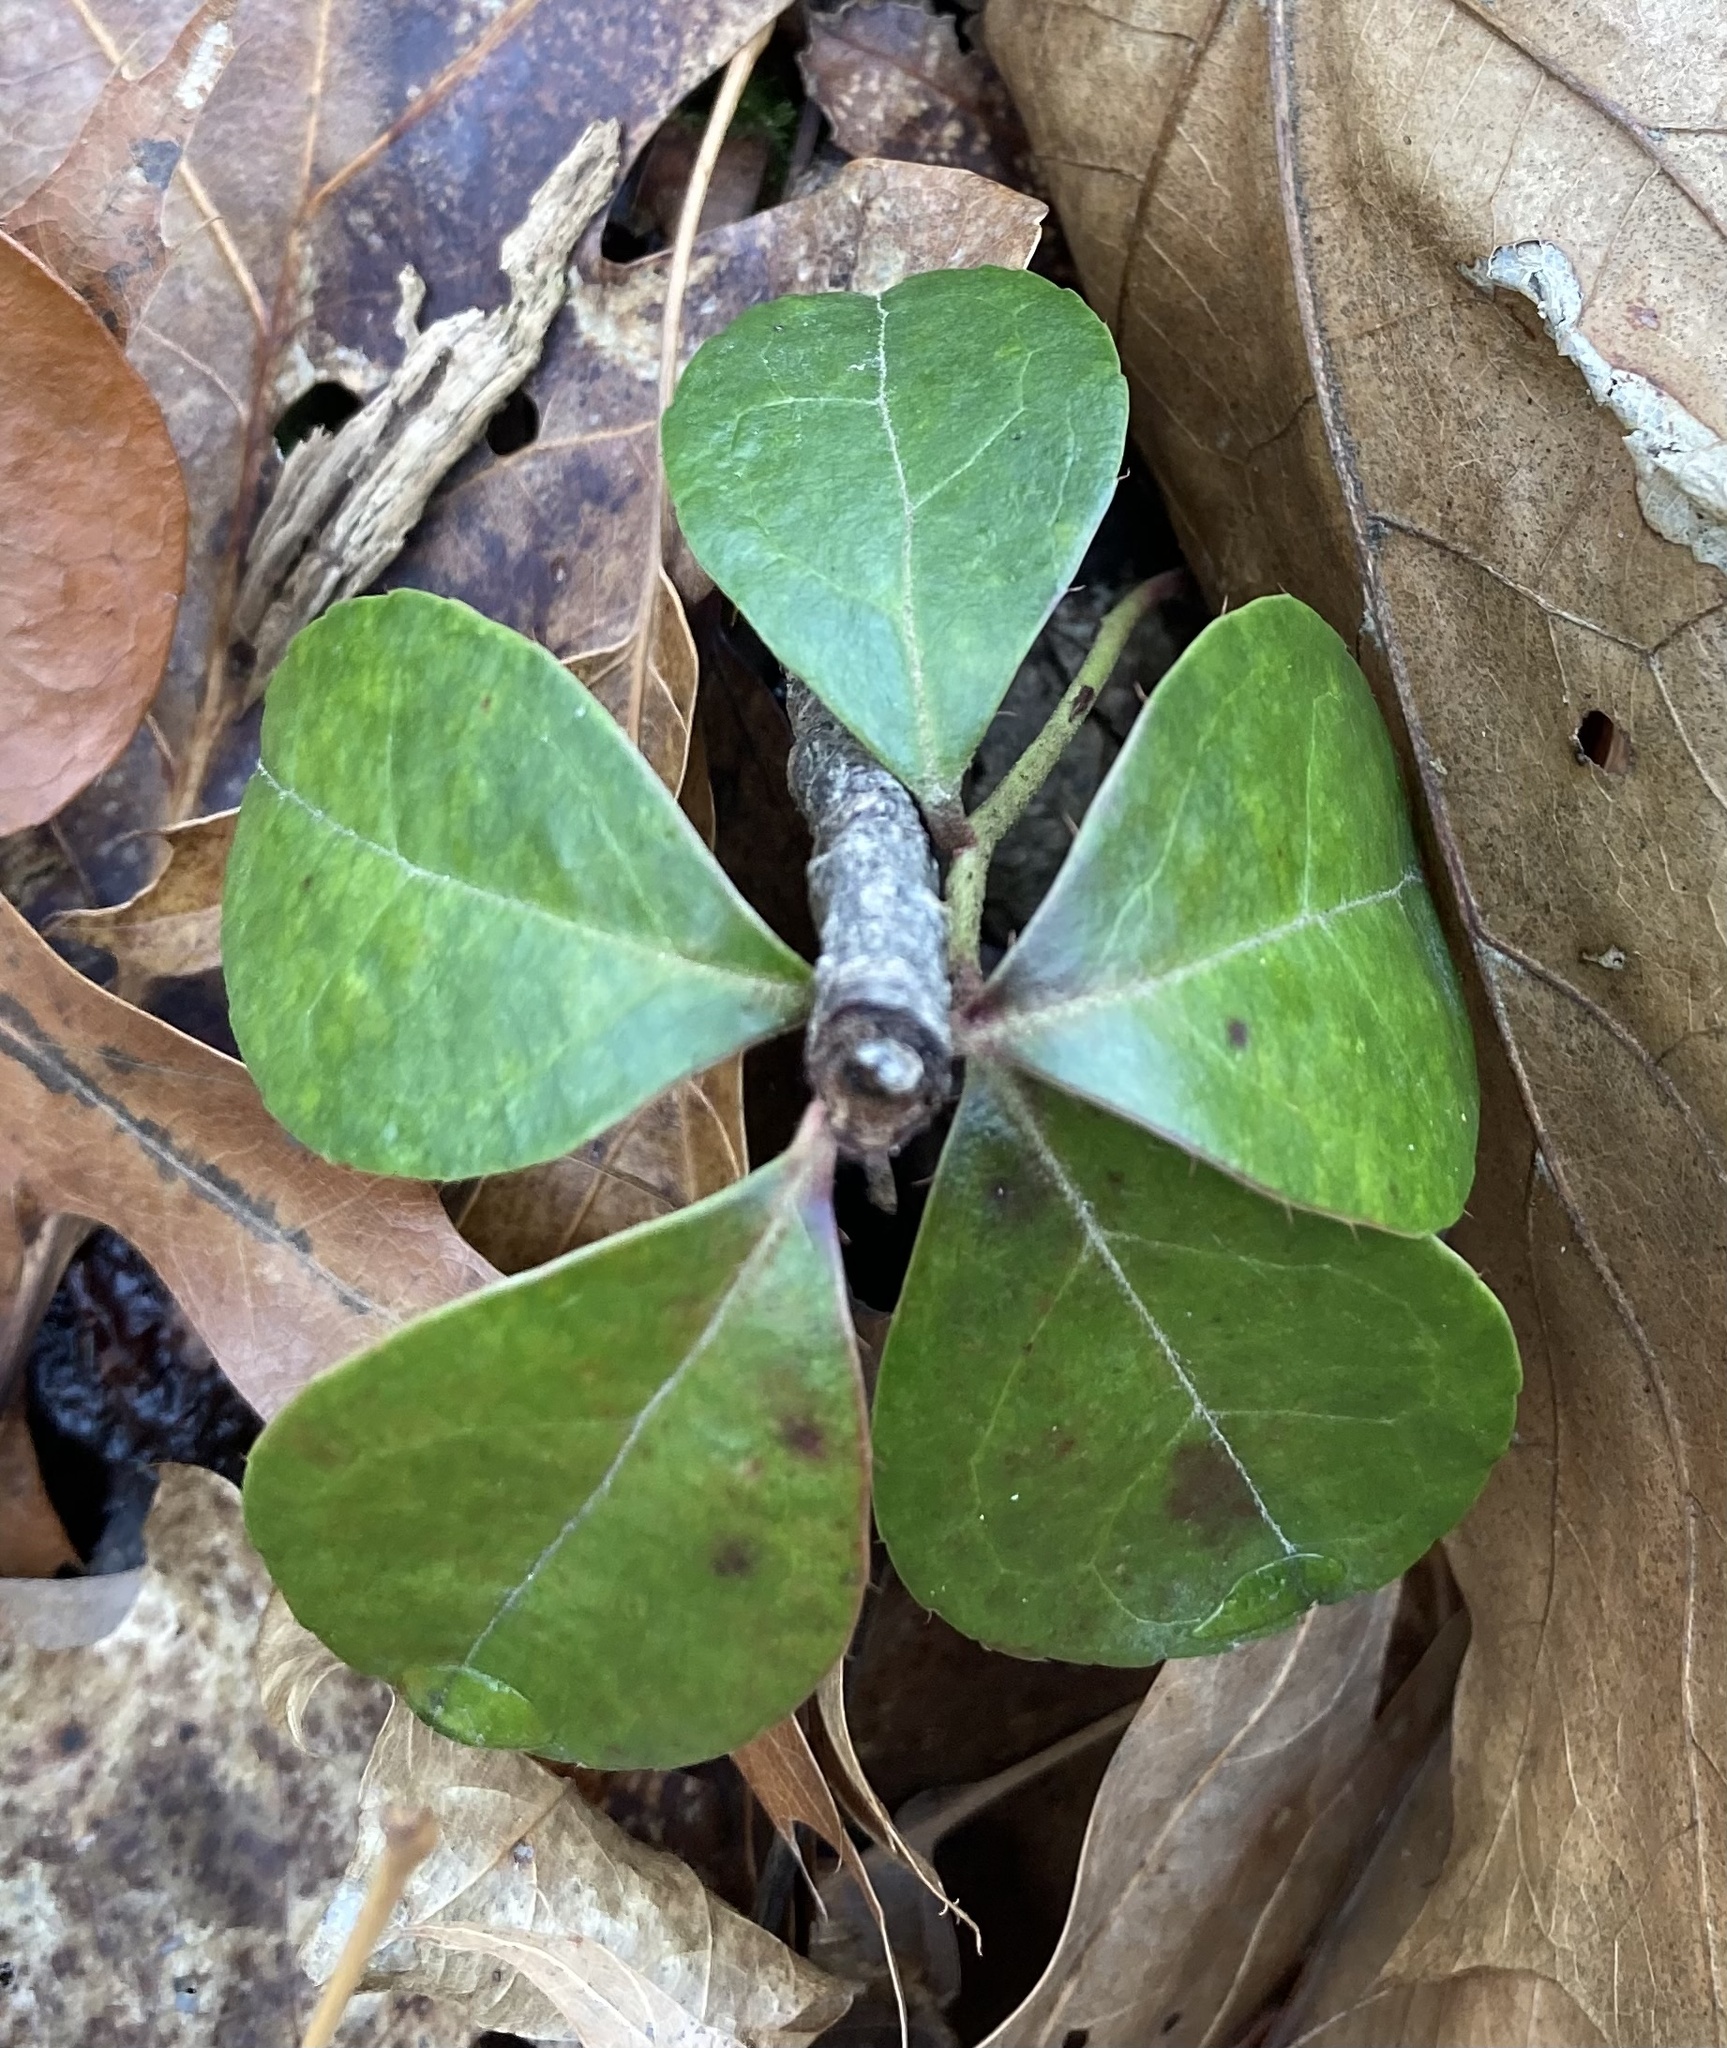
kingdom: Plantae
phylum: Tracheophyta
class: Magnoliopsida
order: Ericales
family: Ericaceae
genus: Gaultheria
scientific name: Gaultheria procumbens
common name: Checkerberry
